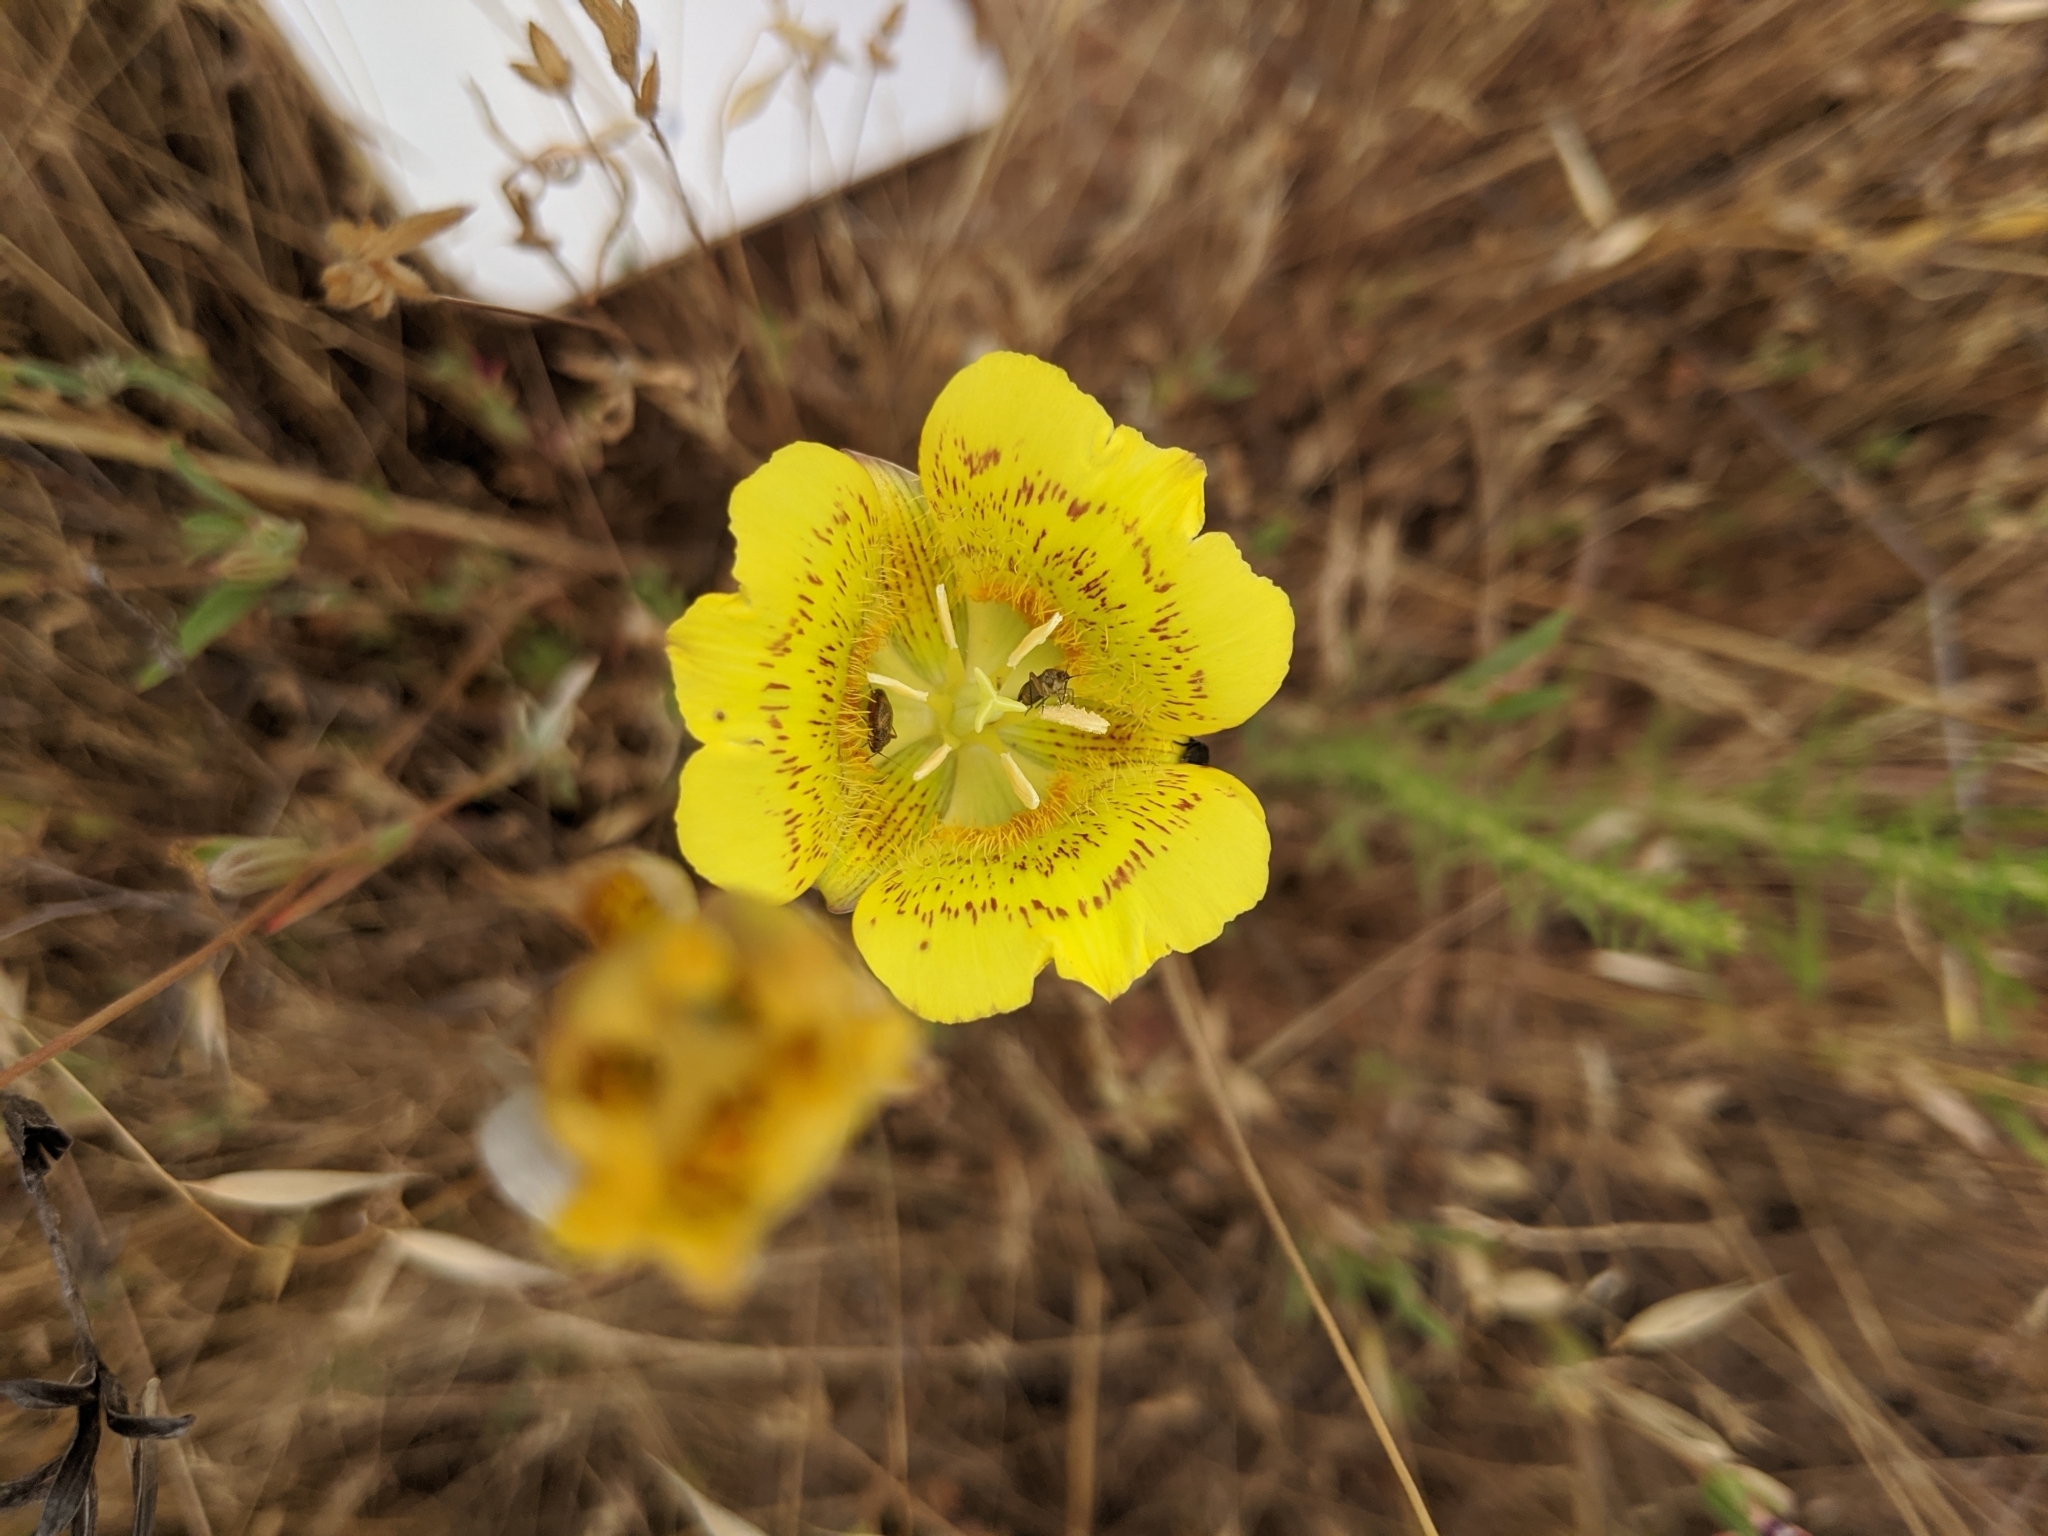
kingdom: Plantae
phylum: Tracheophyta
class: Liliopsida
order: Liliales
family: Liliaceae
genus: Calochortus
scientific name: Calochortus luteus
